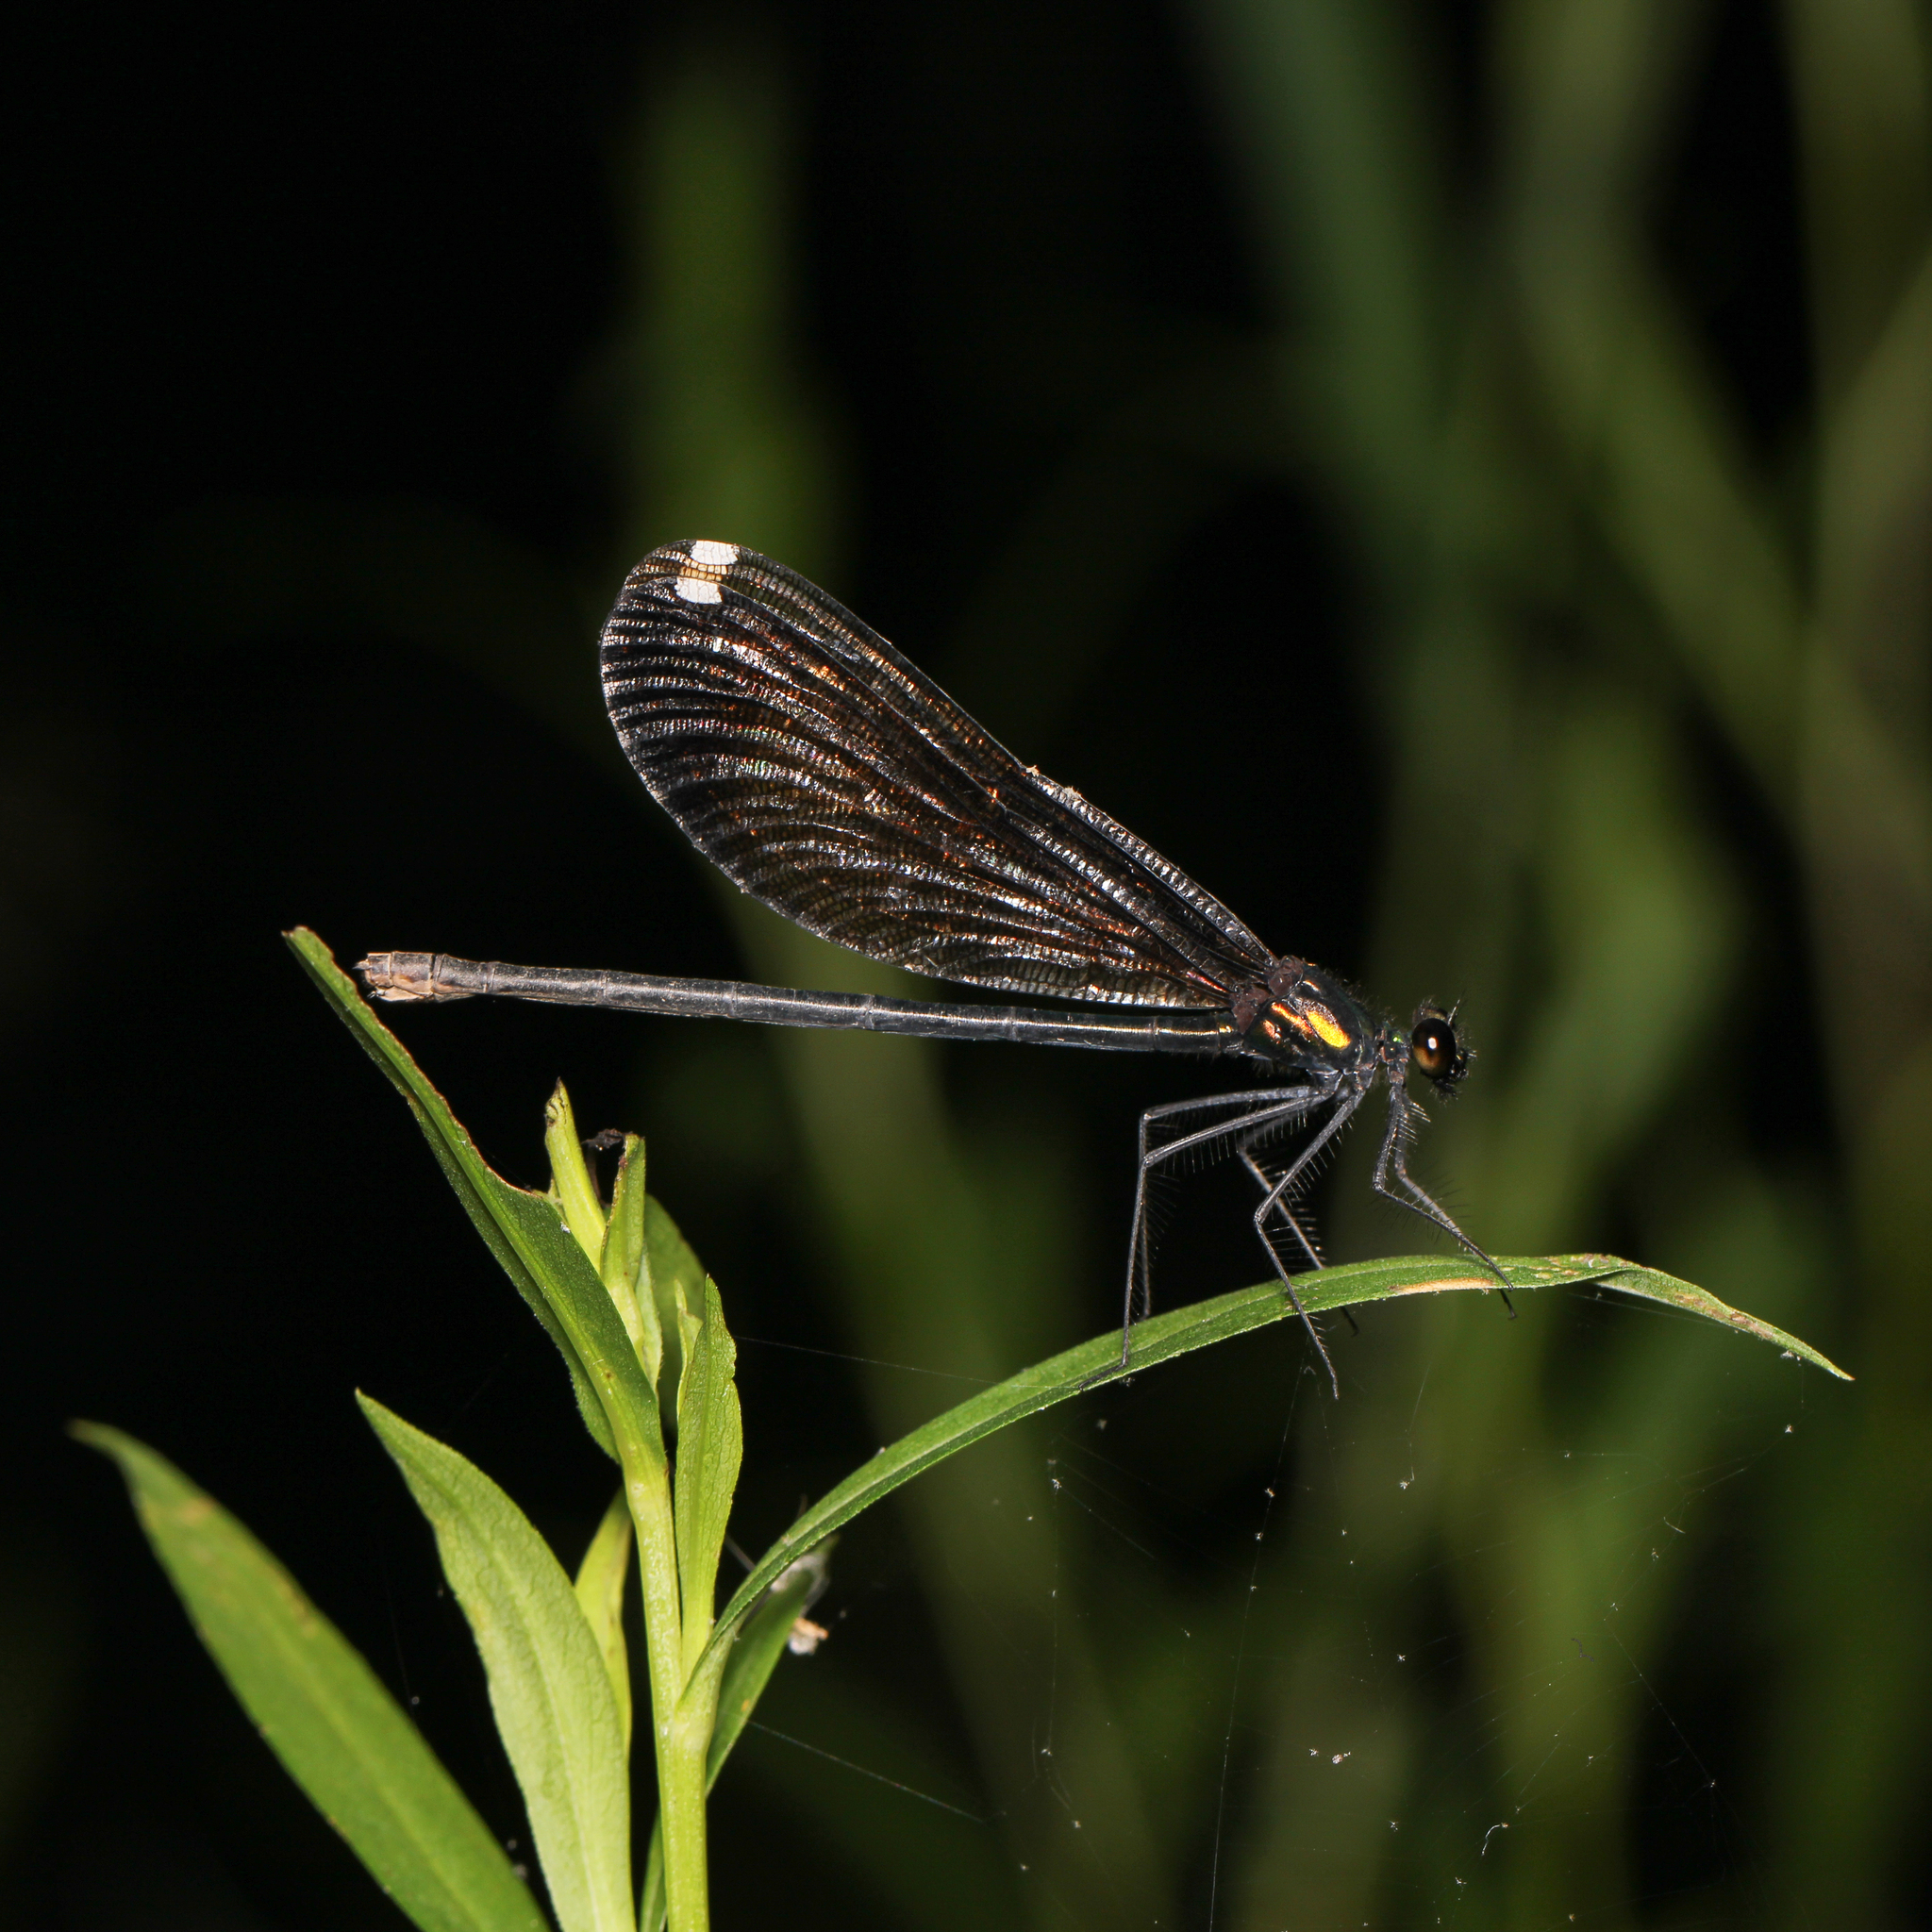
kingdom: Animalia
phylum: Arthropoda
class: Insecta
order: Odonata
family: Calopterygidae
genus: Calopteryx
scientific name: Calopteryx maculata
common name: Ebony jewelwing
